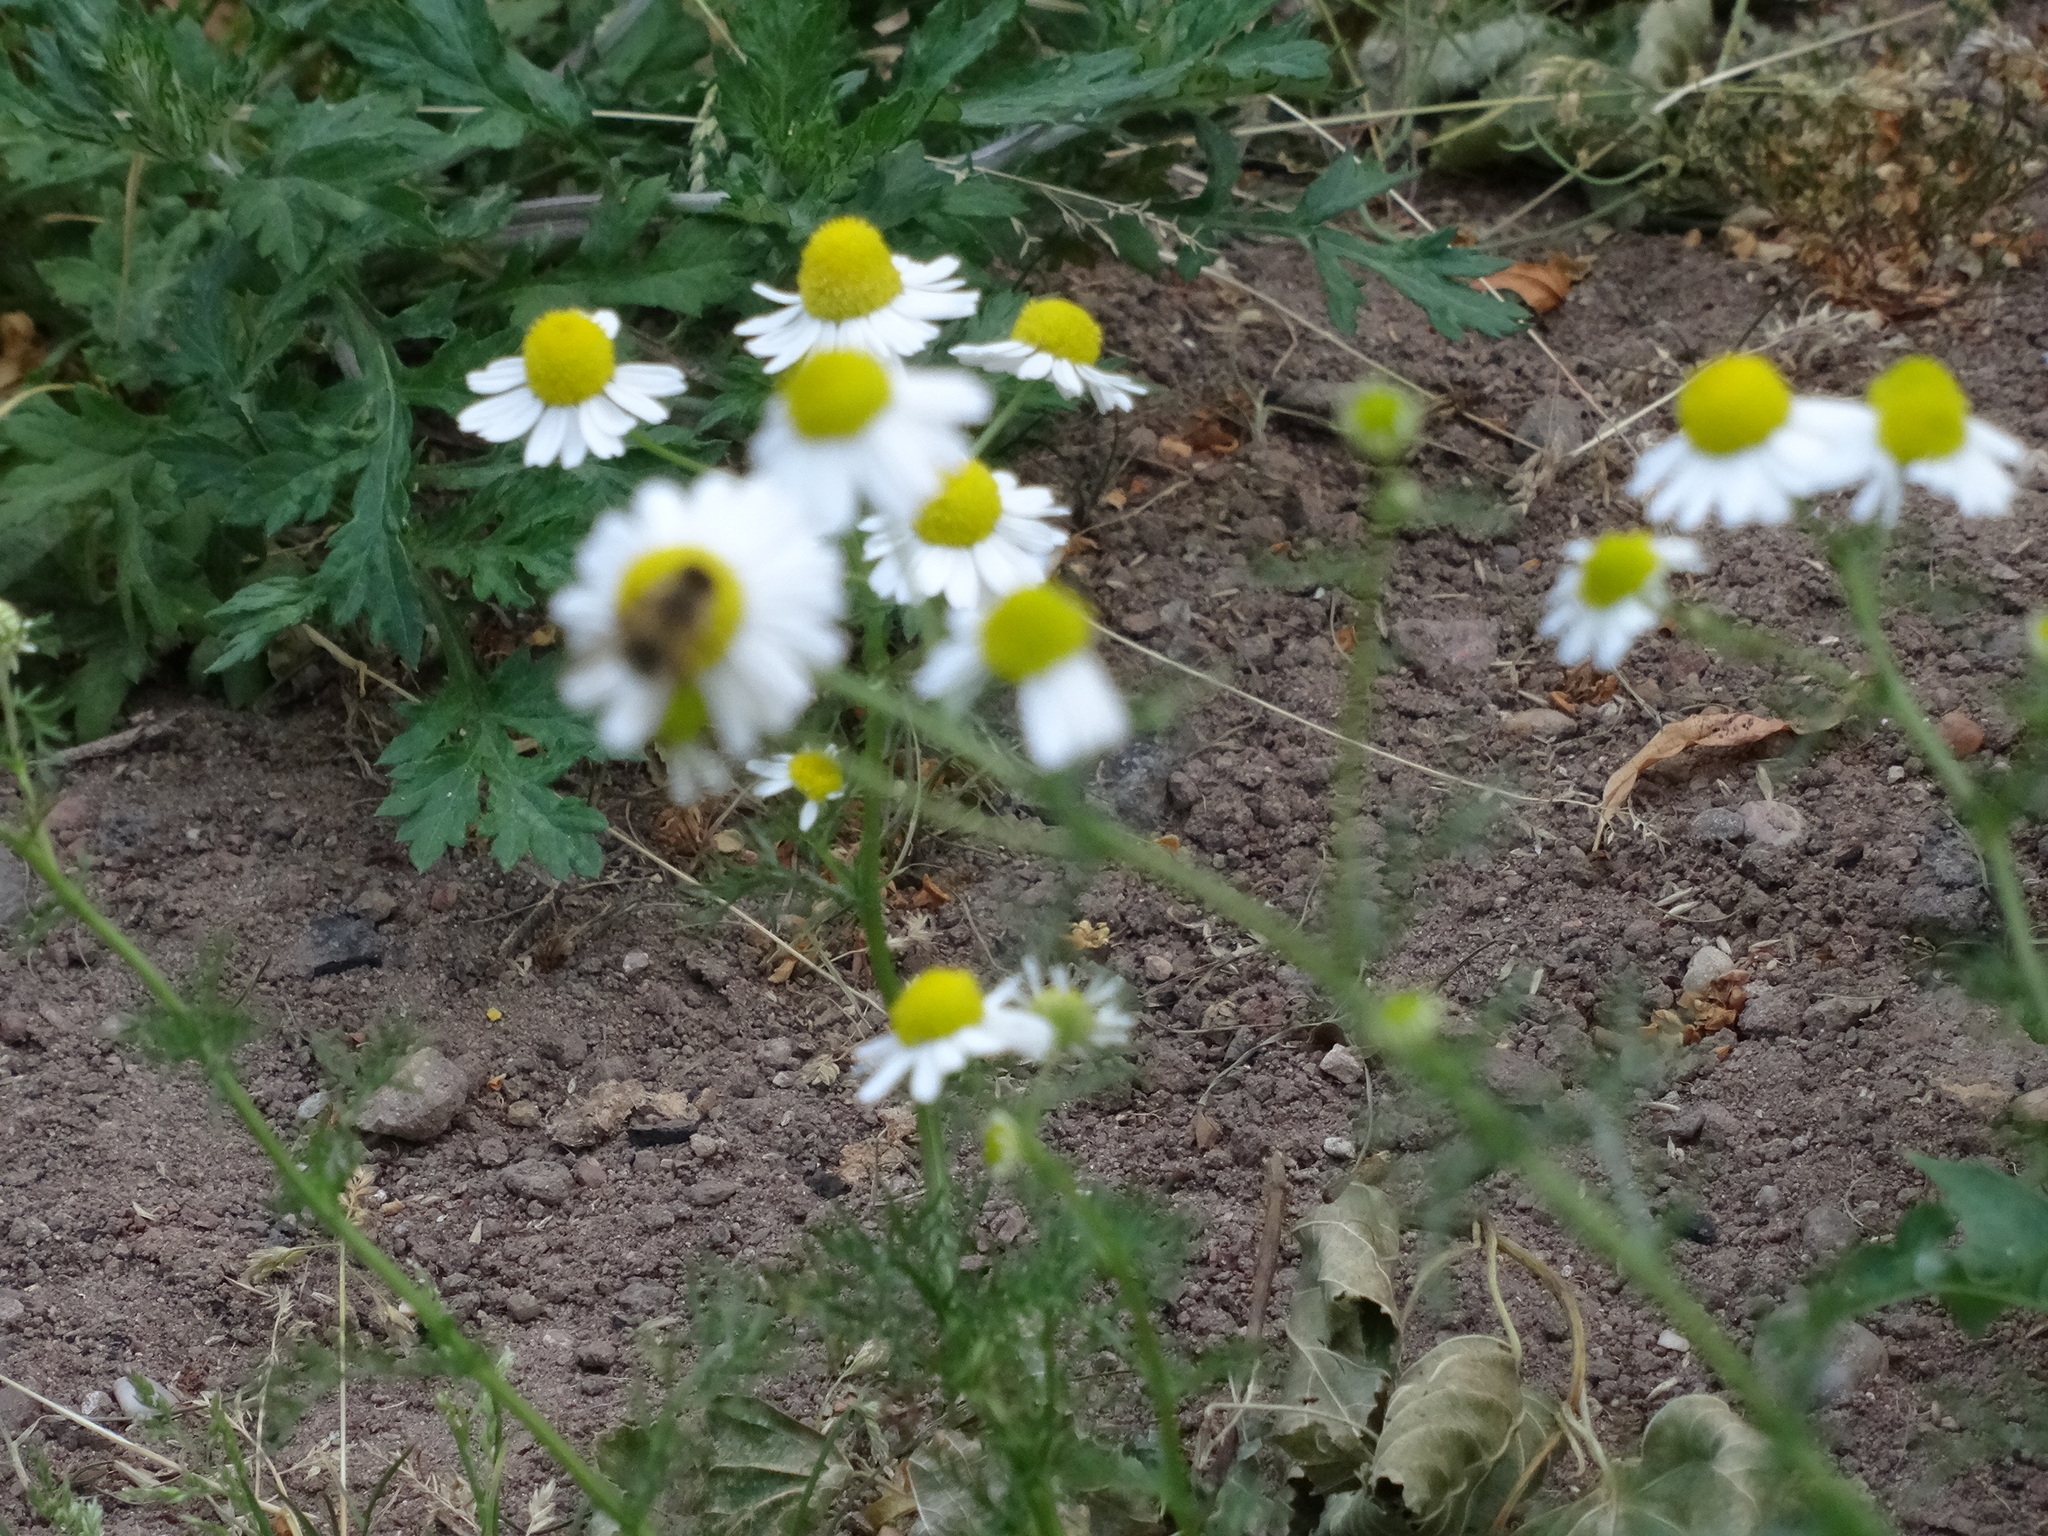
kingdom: Plantae
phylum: Tracheophyta
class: Magnoliopsida
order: Asterales
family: Asteraceae
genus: Matricaria
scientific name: Matricaria chamomilla
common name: Scented mayweed
